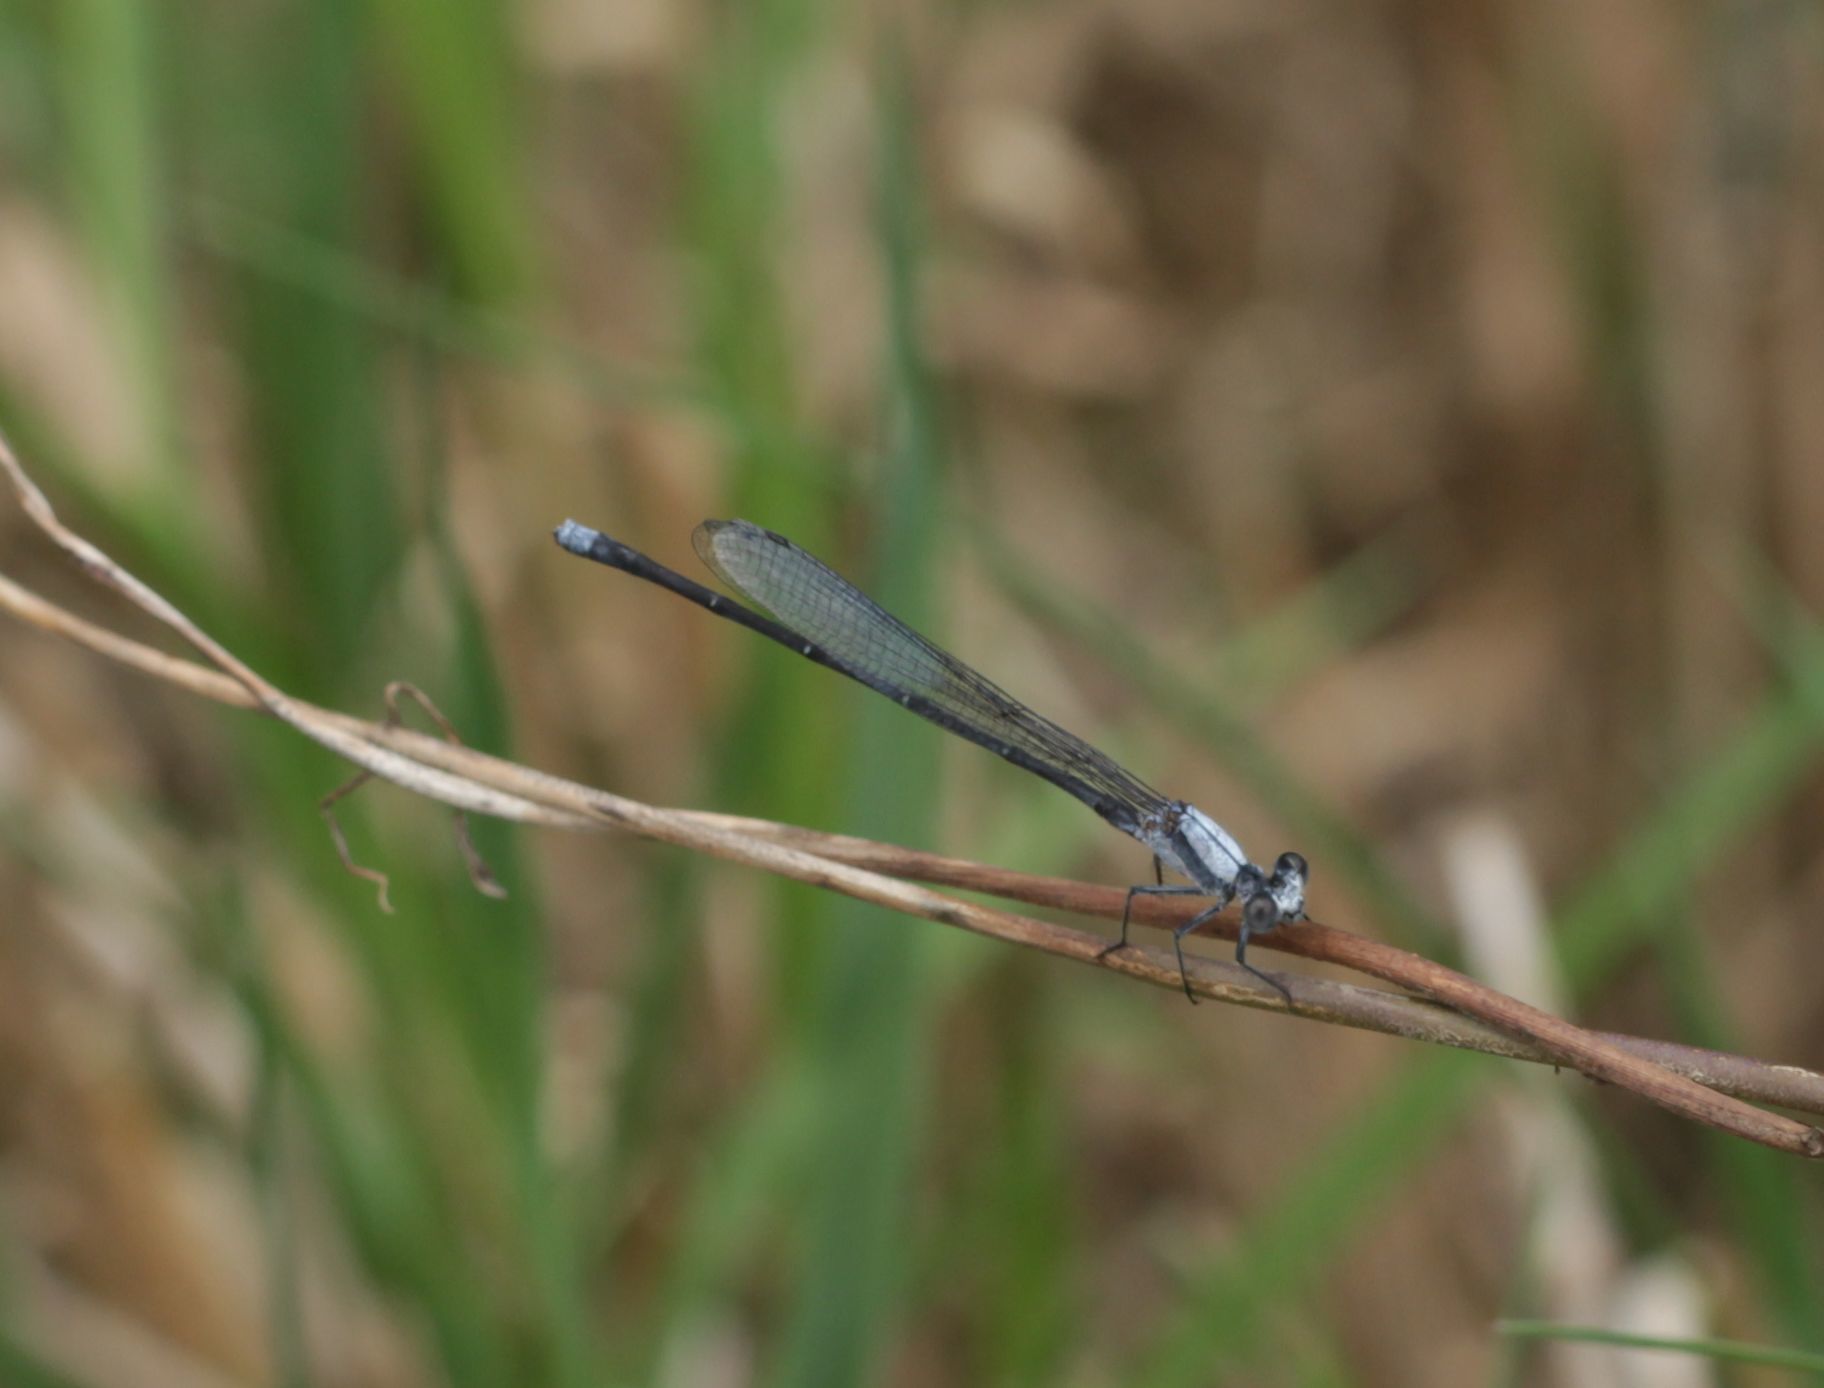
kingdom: Animalia
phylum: Arthropoda
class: Insecta
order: Odonata
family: Coenagrionidae
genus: Argia
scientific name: Argia moesta
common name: Powdered dancer
